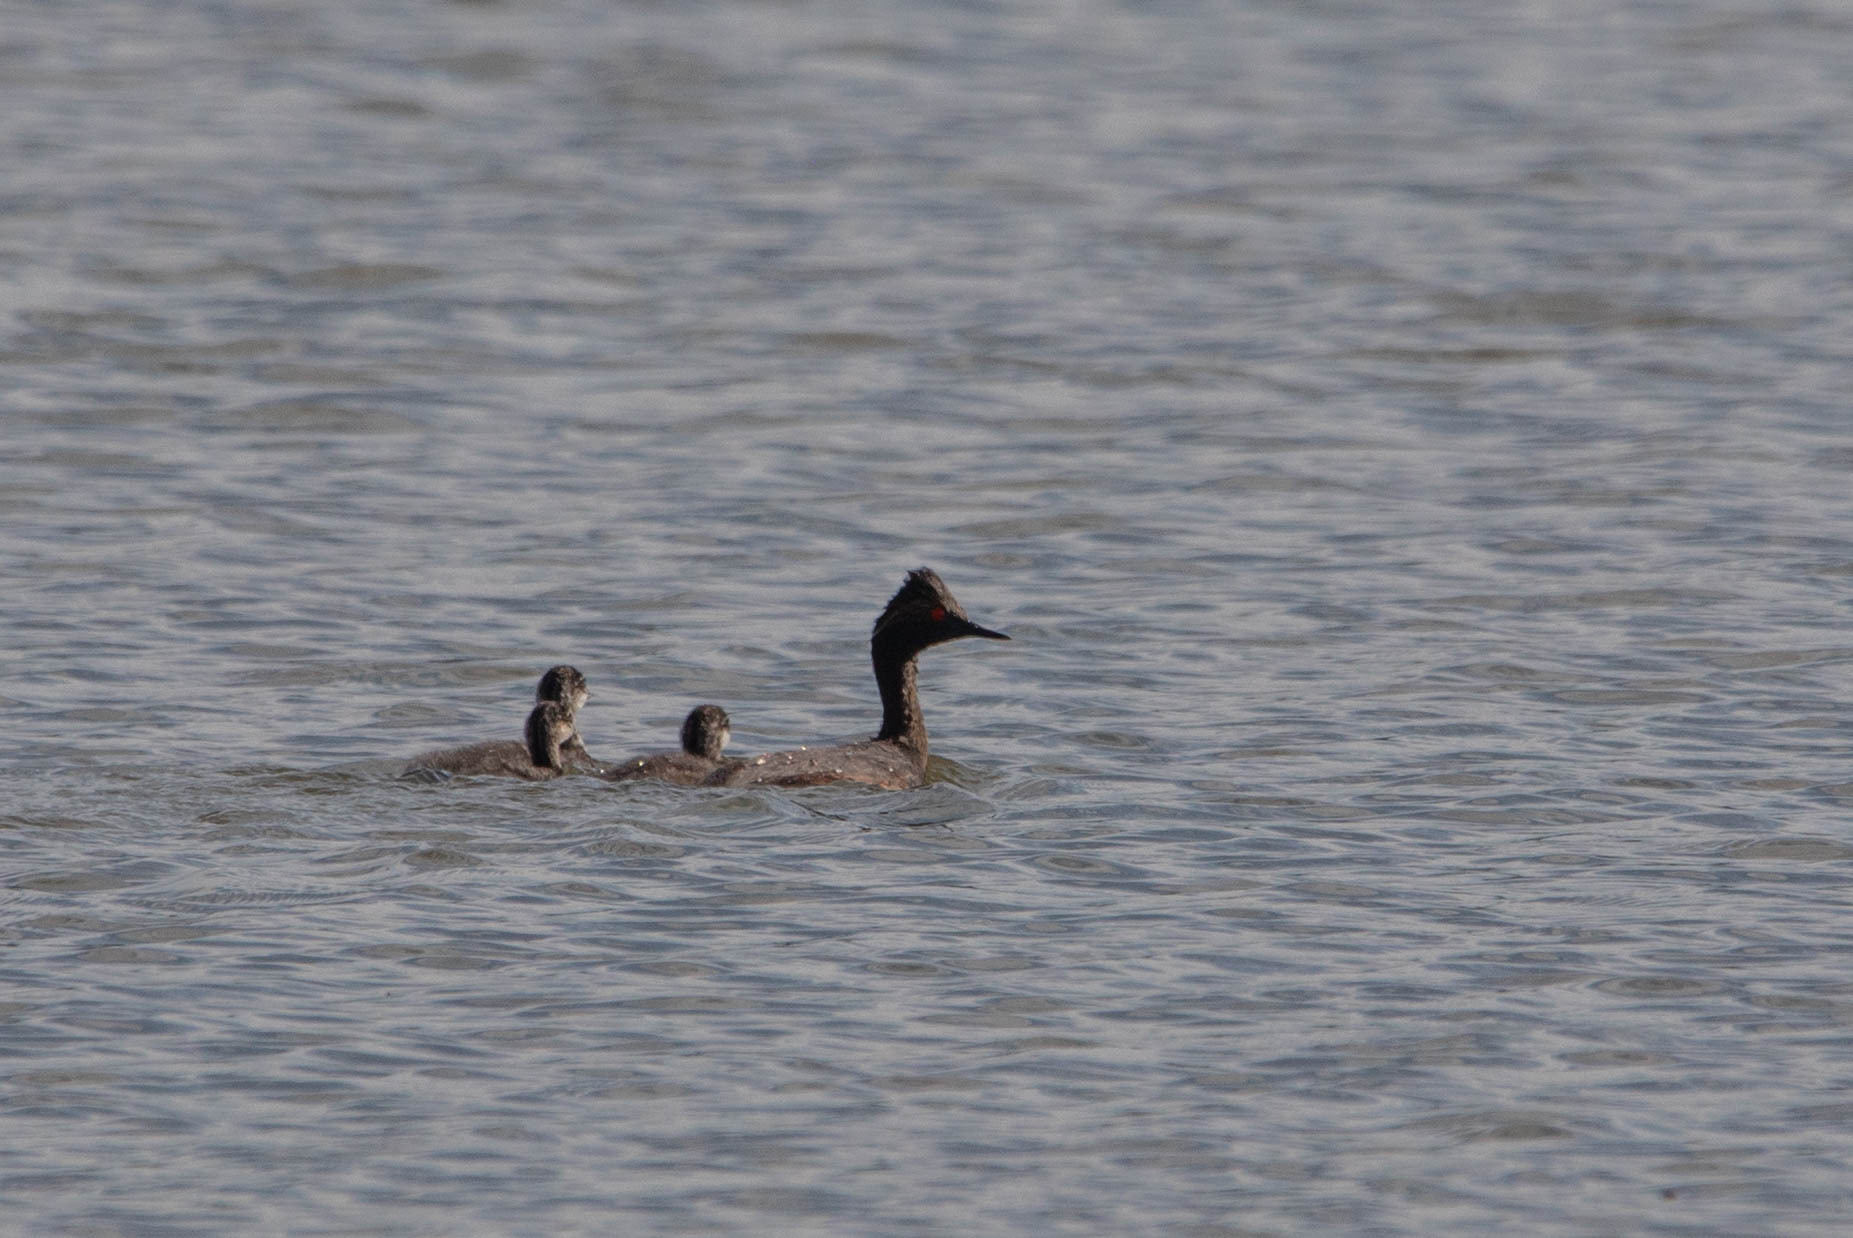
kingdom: Animalia
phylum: Chordata
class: Aves
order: Podicipediformes
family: Podicipedidae
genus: Podiceps
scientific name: Podiceps nigricollis
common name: Black-necked grebe
